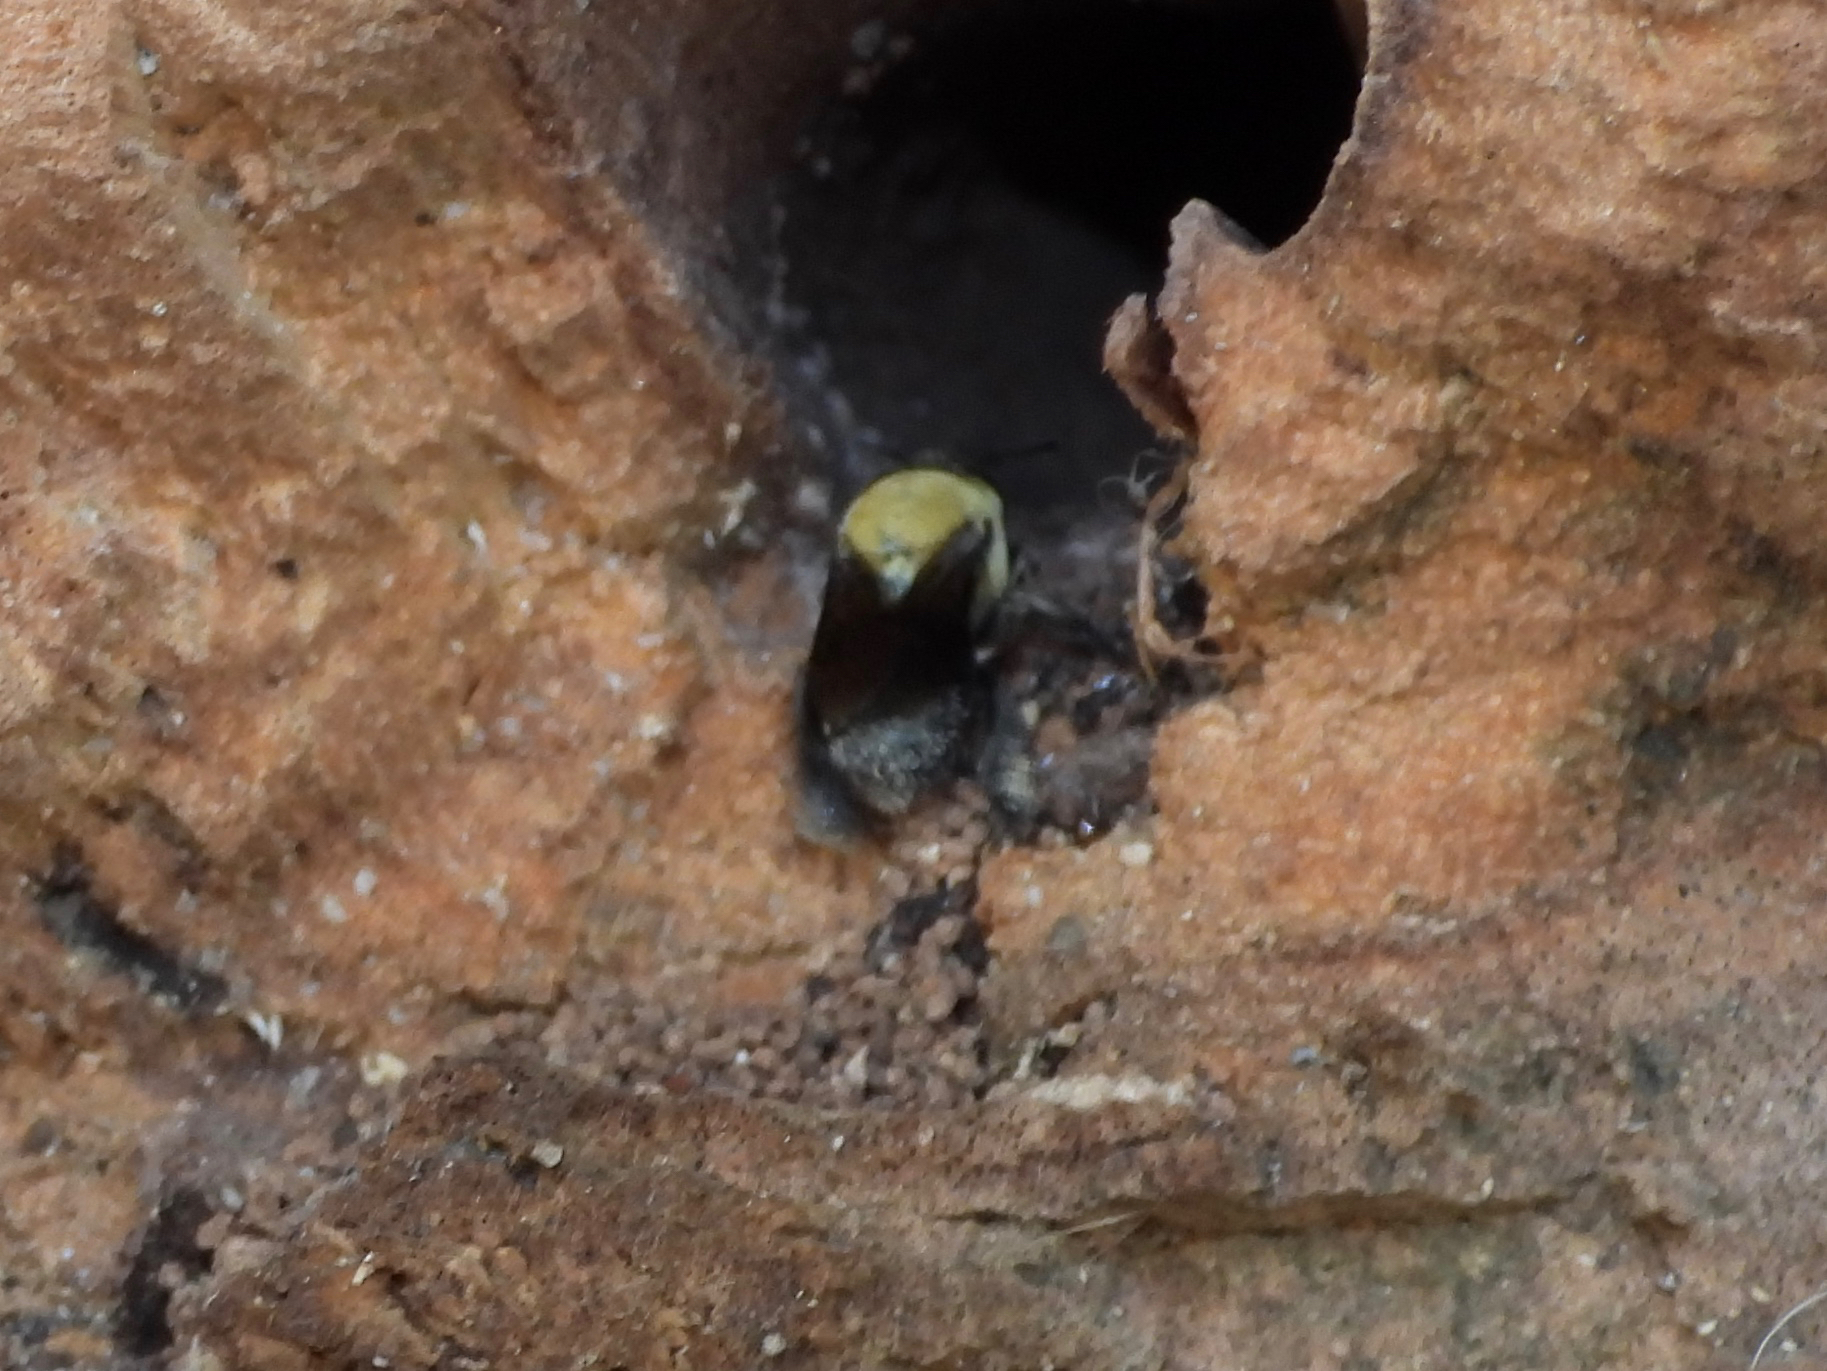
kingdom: Animalia
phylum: Arthropoda
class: Insecta
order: Hymenoptera
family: Apidae
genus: Centris
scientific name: Centris nitida
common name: Oil-collecting bee
